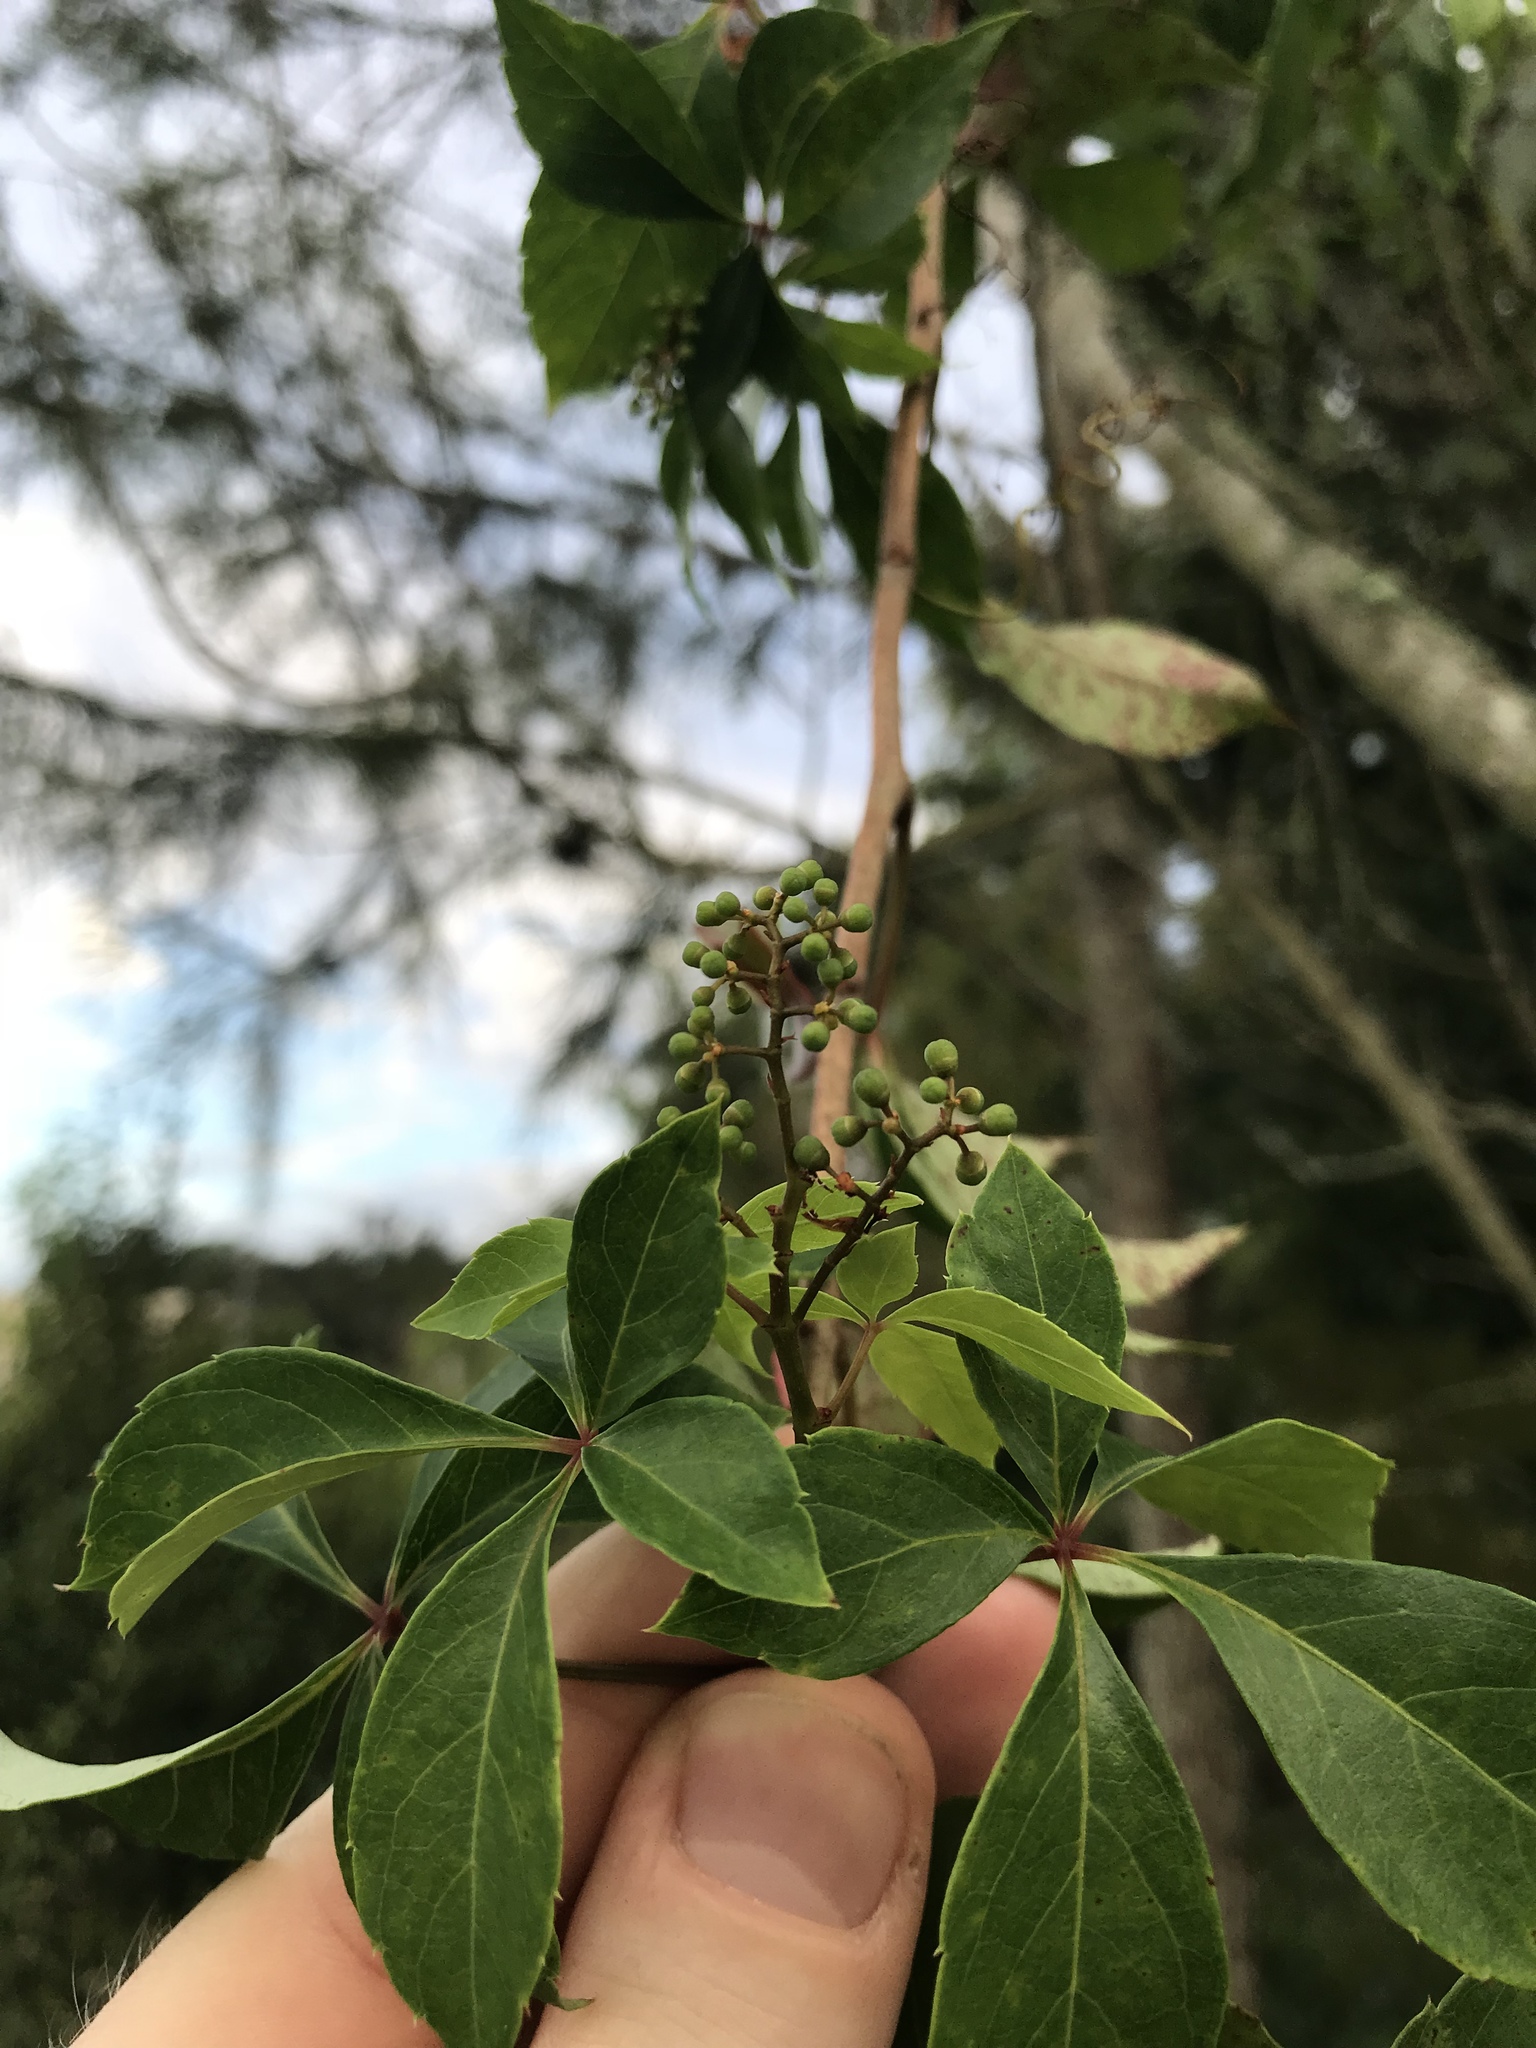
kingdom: Plantae
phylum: Tracheophyta
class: Magnoliopsida
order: Vitales
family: Vitaceae
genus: Parthenocissus
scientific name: Parthenocissus quinquefolia
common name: Virginia-creeper
